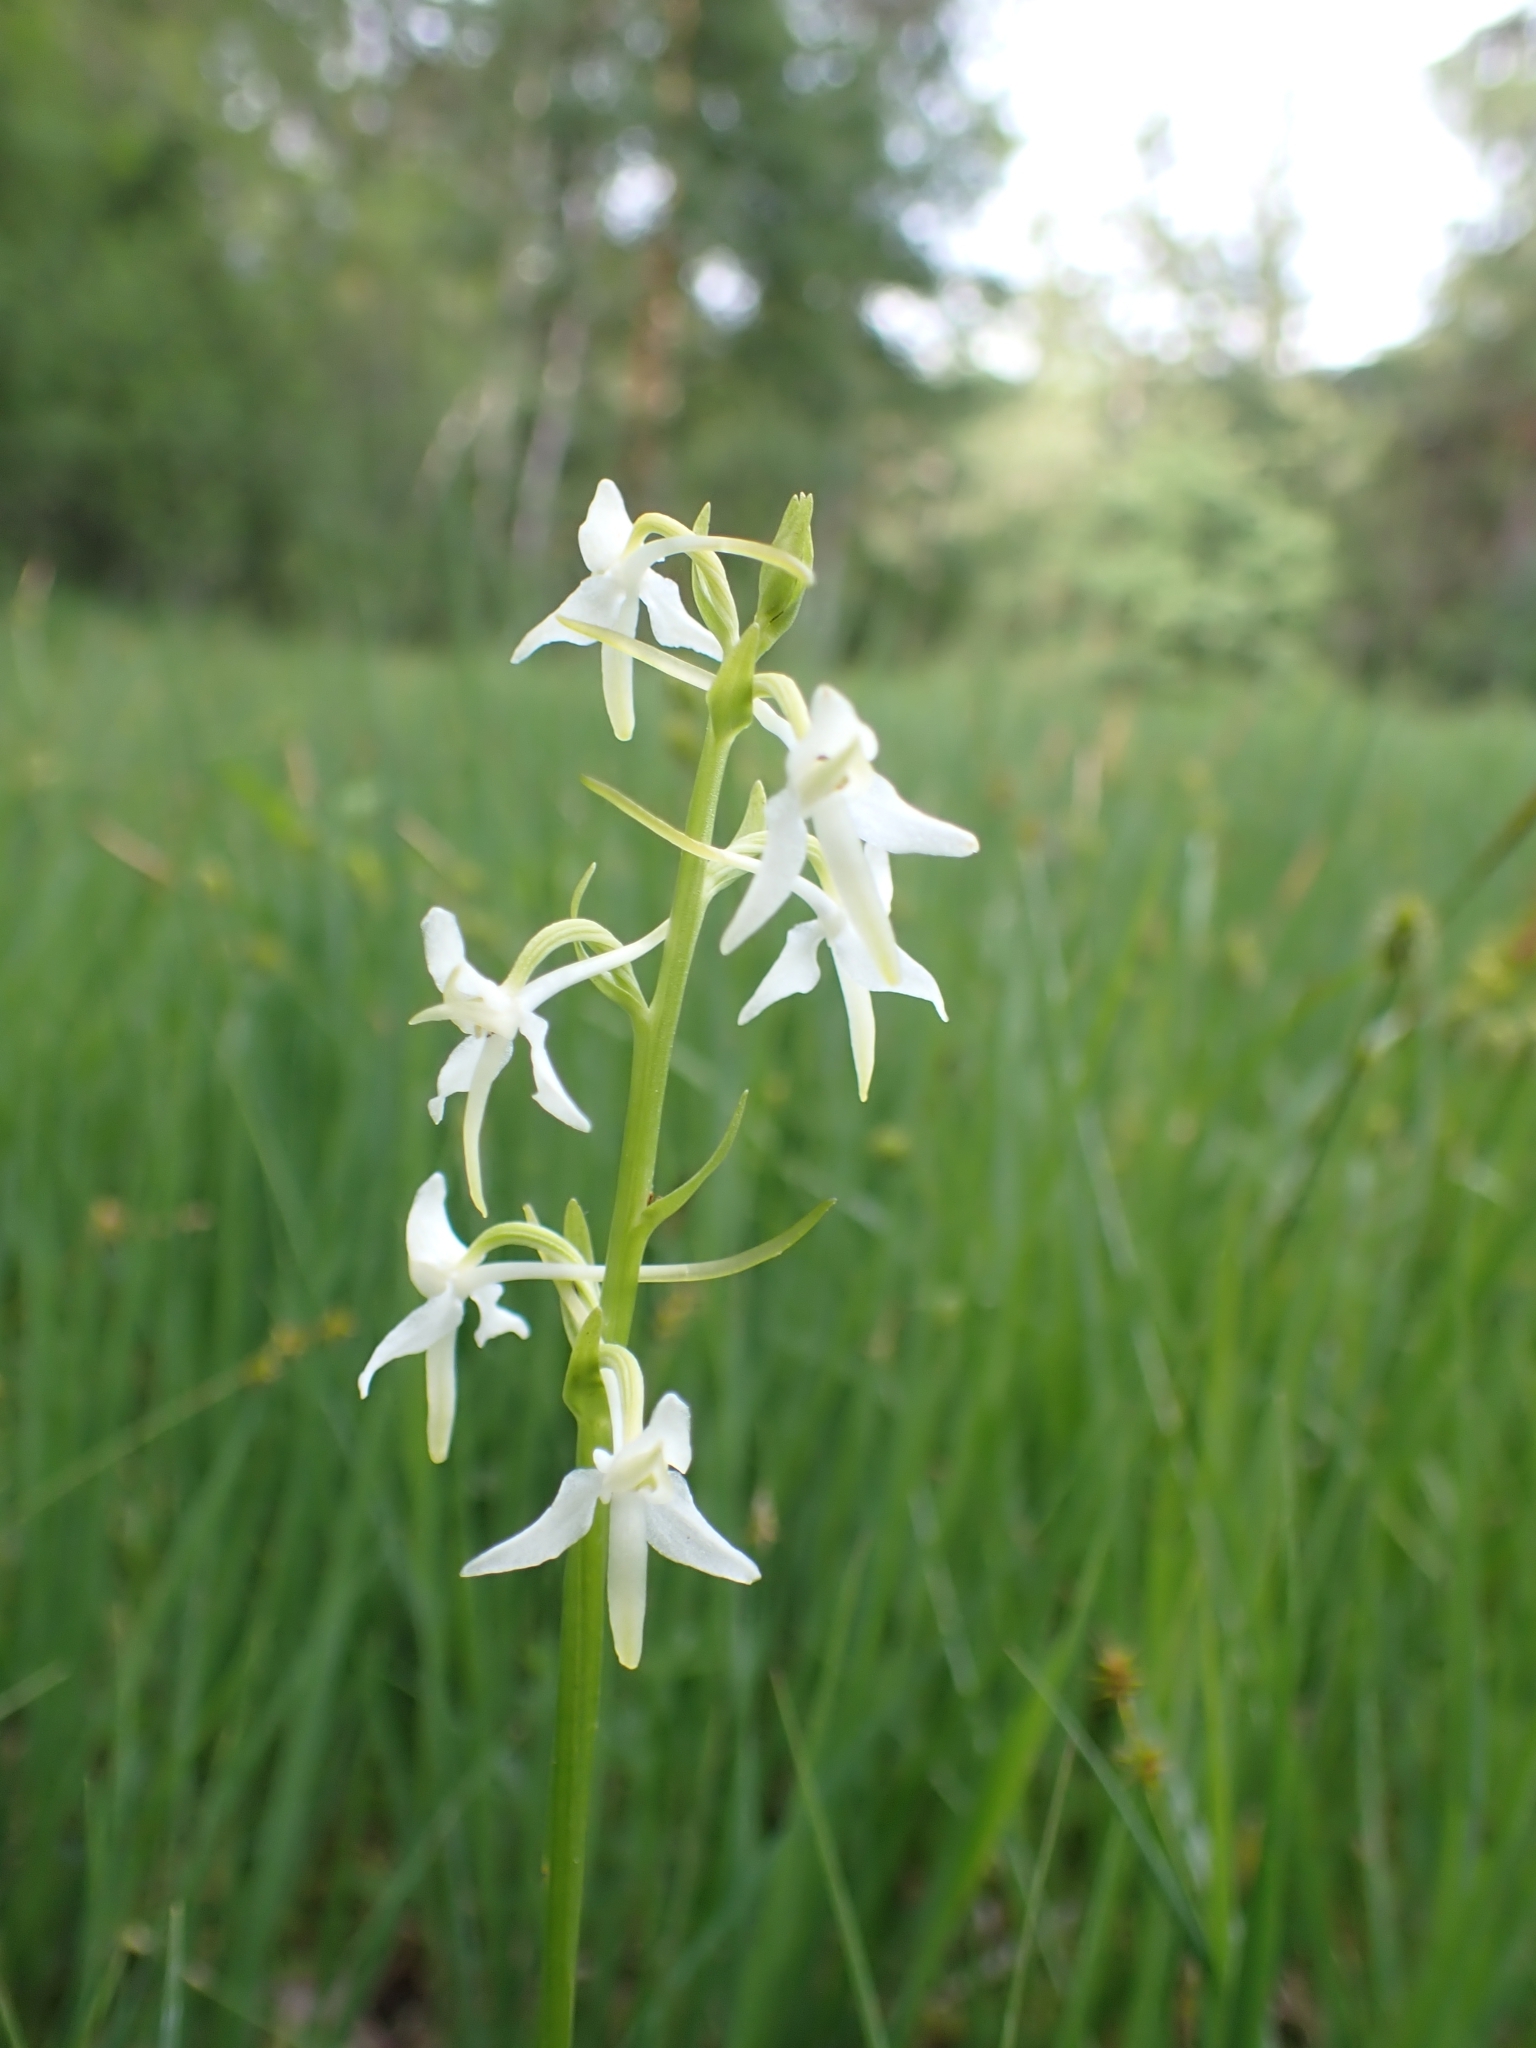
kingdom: Plantae
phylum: Tracheophyta
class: Liliopsida
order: Asparagales
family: Orchidaceae
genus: Platanthera
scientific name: Platanthera bifolia
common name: Lesser butterfly-orchid
